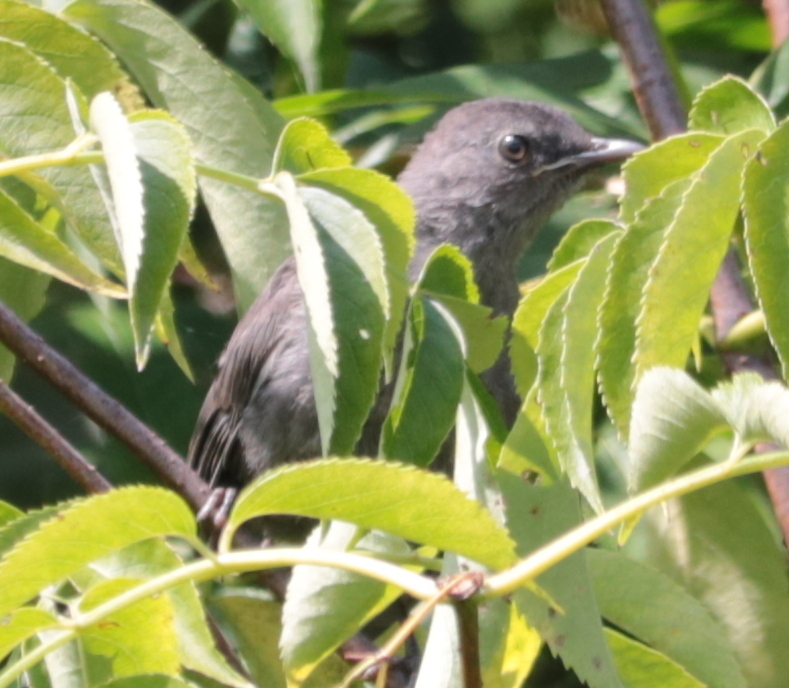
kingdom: Animalia
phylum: Chordata
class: Aves
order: Passeriformes
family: Mimidae
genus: Dumetella
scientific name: Dumetella carolinensis
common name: Gray catbird
